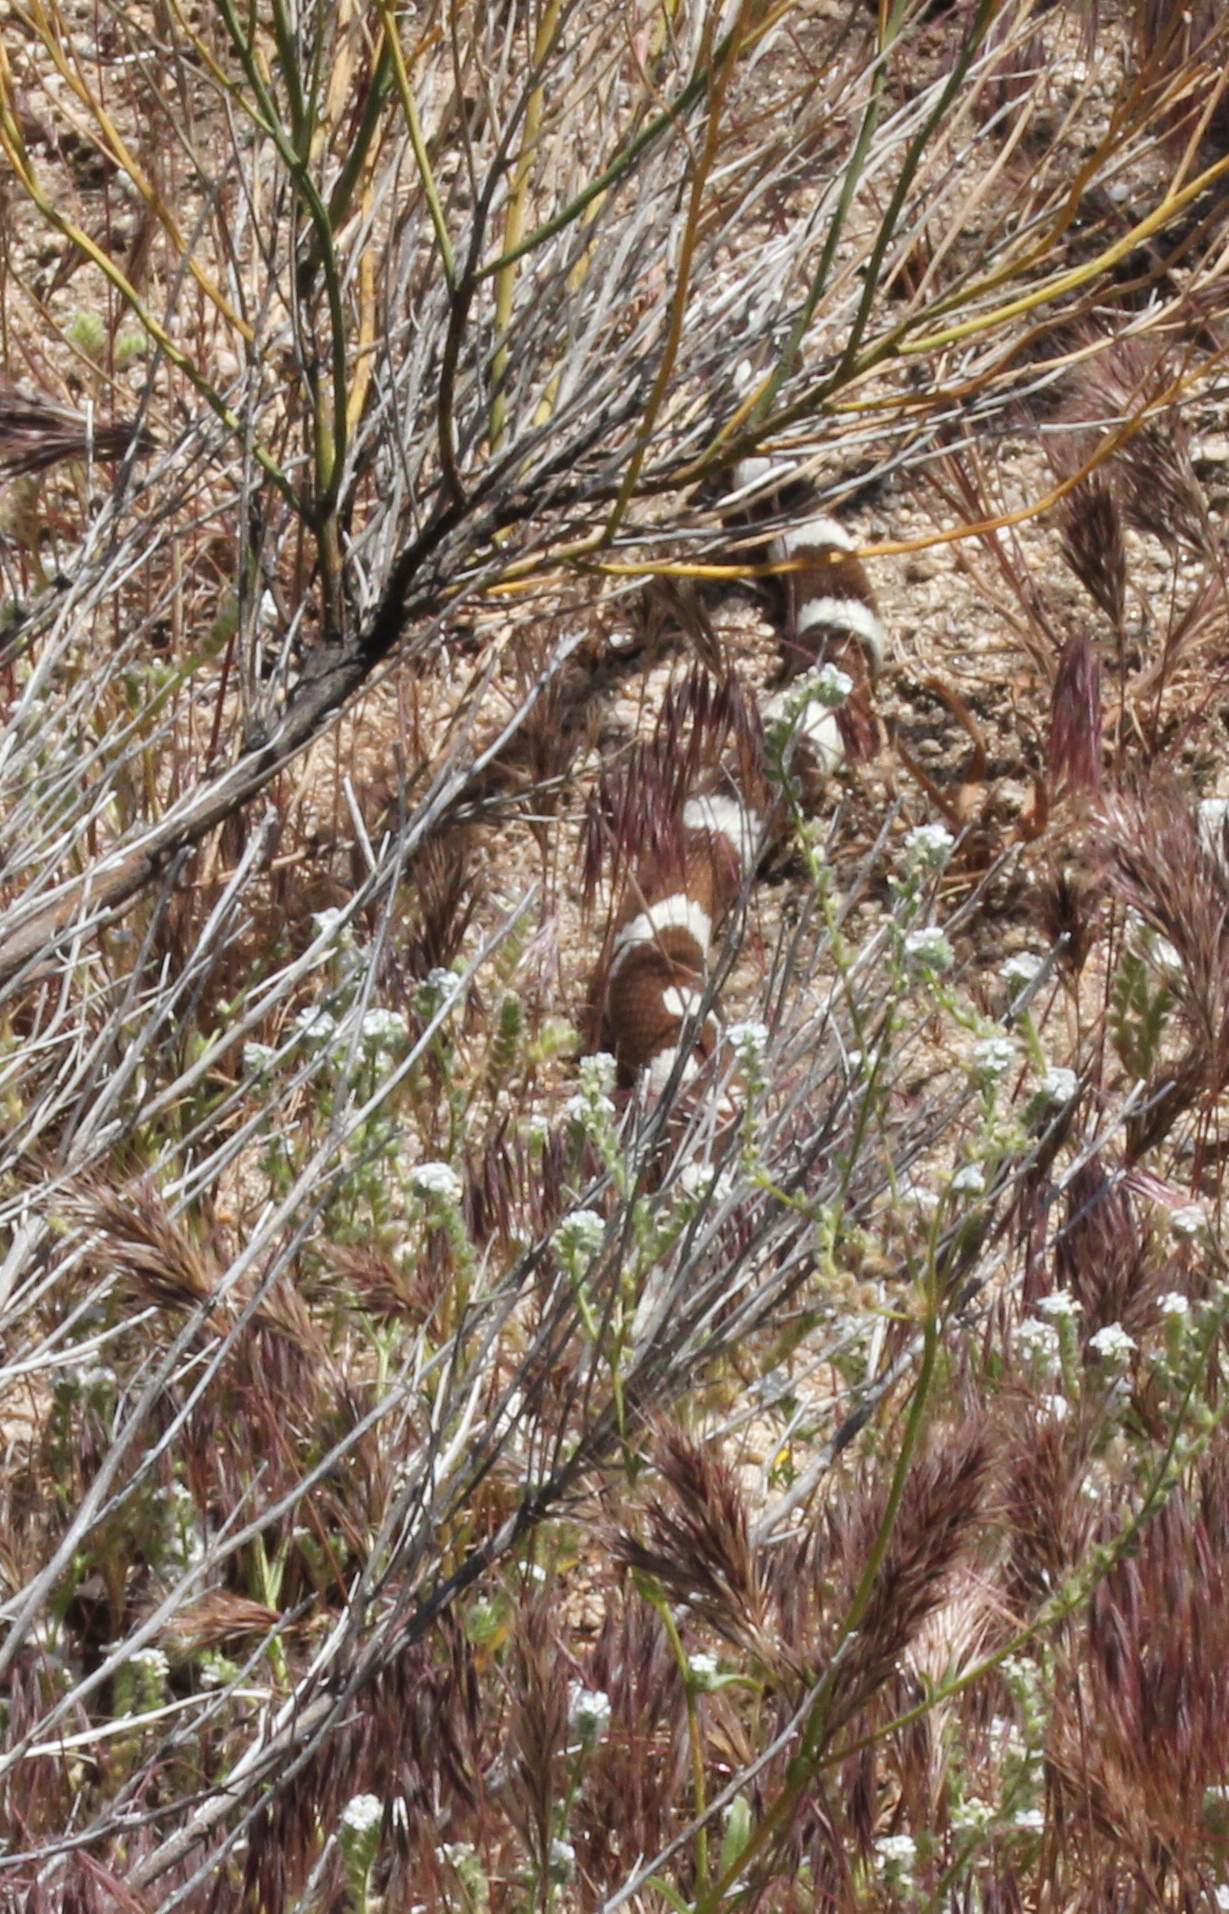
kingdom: Animalia
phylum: Chordata
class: Squamata
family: Colubridae
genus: Lampropeltis
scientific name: Lampropeltis californiae
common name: California kingsnake
